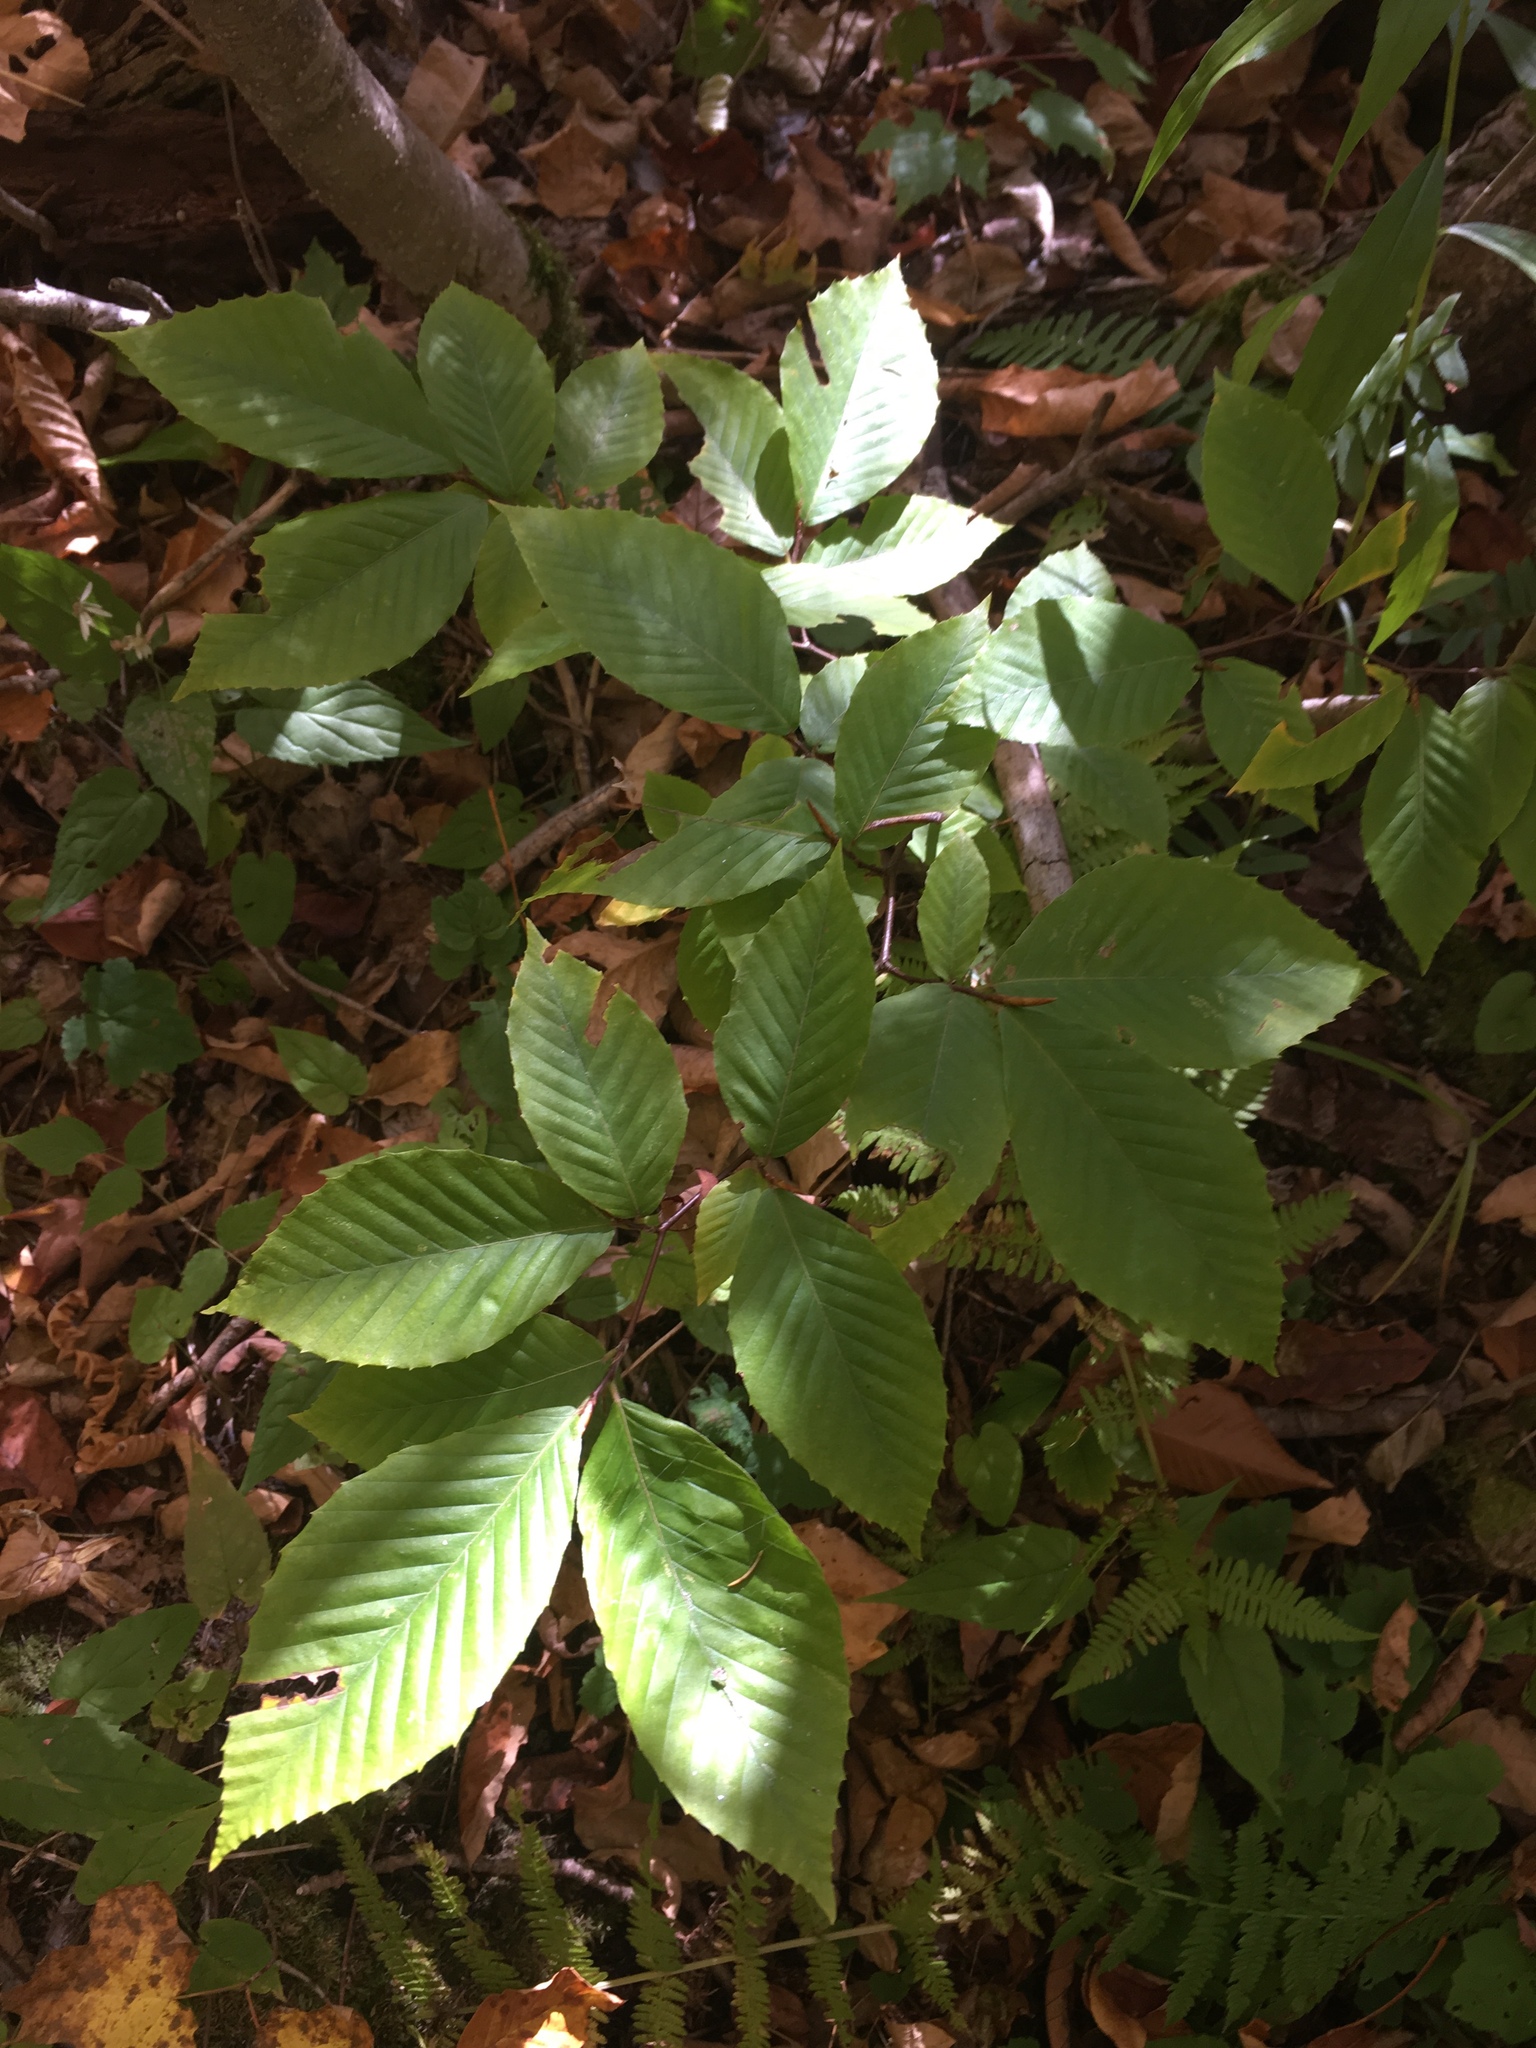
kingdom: Plantae
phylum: Tracheophyta
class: Magnoliopsida
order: Fagales
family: Fagaceae
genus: Fagus
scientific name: Fagus grandifolia
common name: American beech
